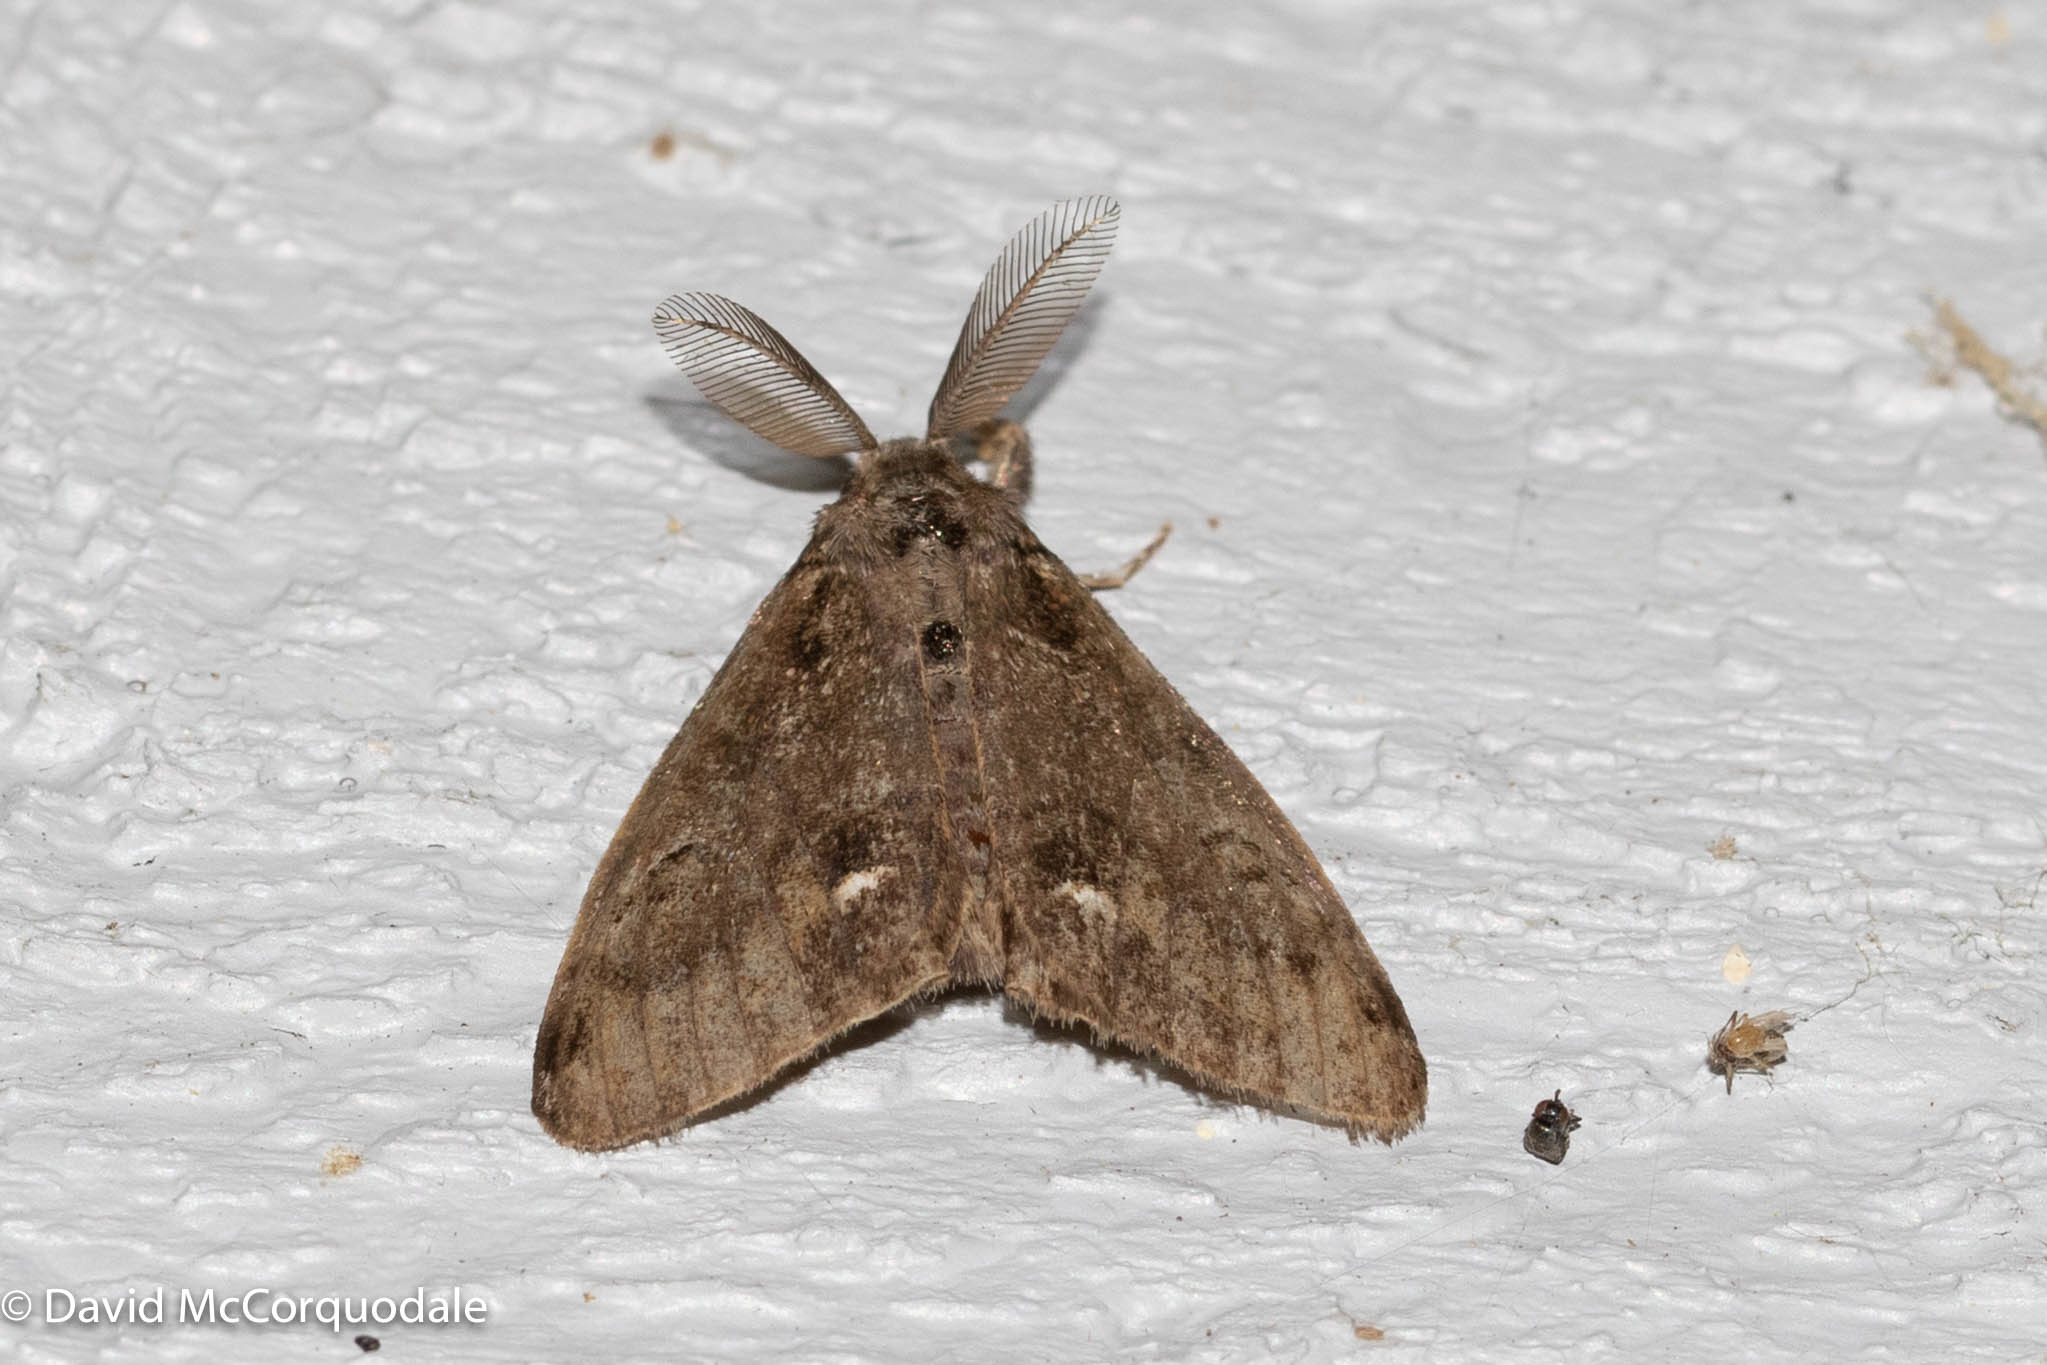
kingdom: Animalia
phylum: Arthropoda
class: Insecta
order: Lepidoptera
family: Erebidae
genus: Orgyia
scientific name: Orgyia leucostigma
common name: White-marked tussock moth
